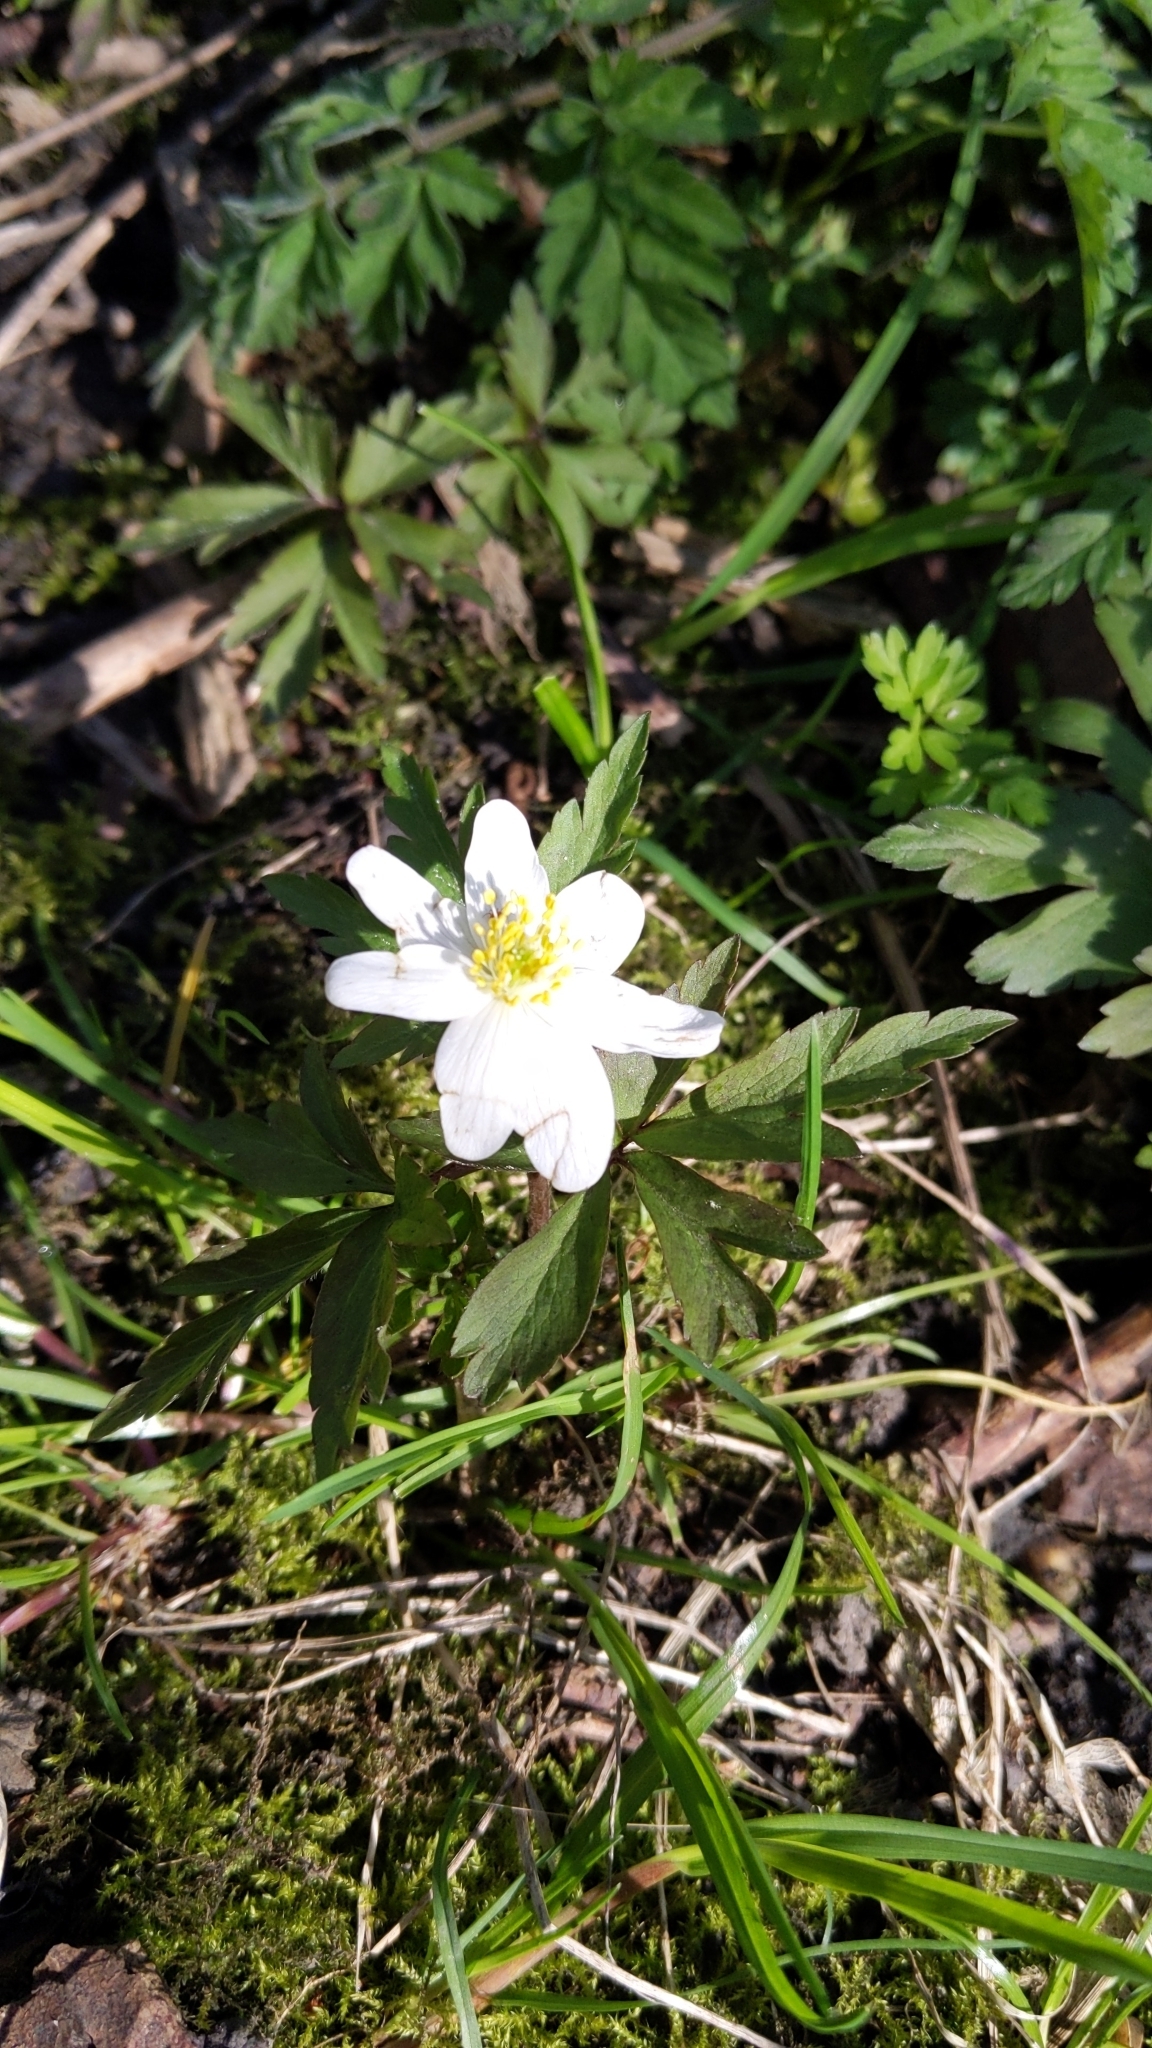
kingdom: Plantae
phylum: Tracheophyta
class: Magnoliopsida
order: Ranunculales
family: Ranunculaceae
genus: Anemone
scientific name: Anemone nemorosa
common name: Wood anemone
